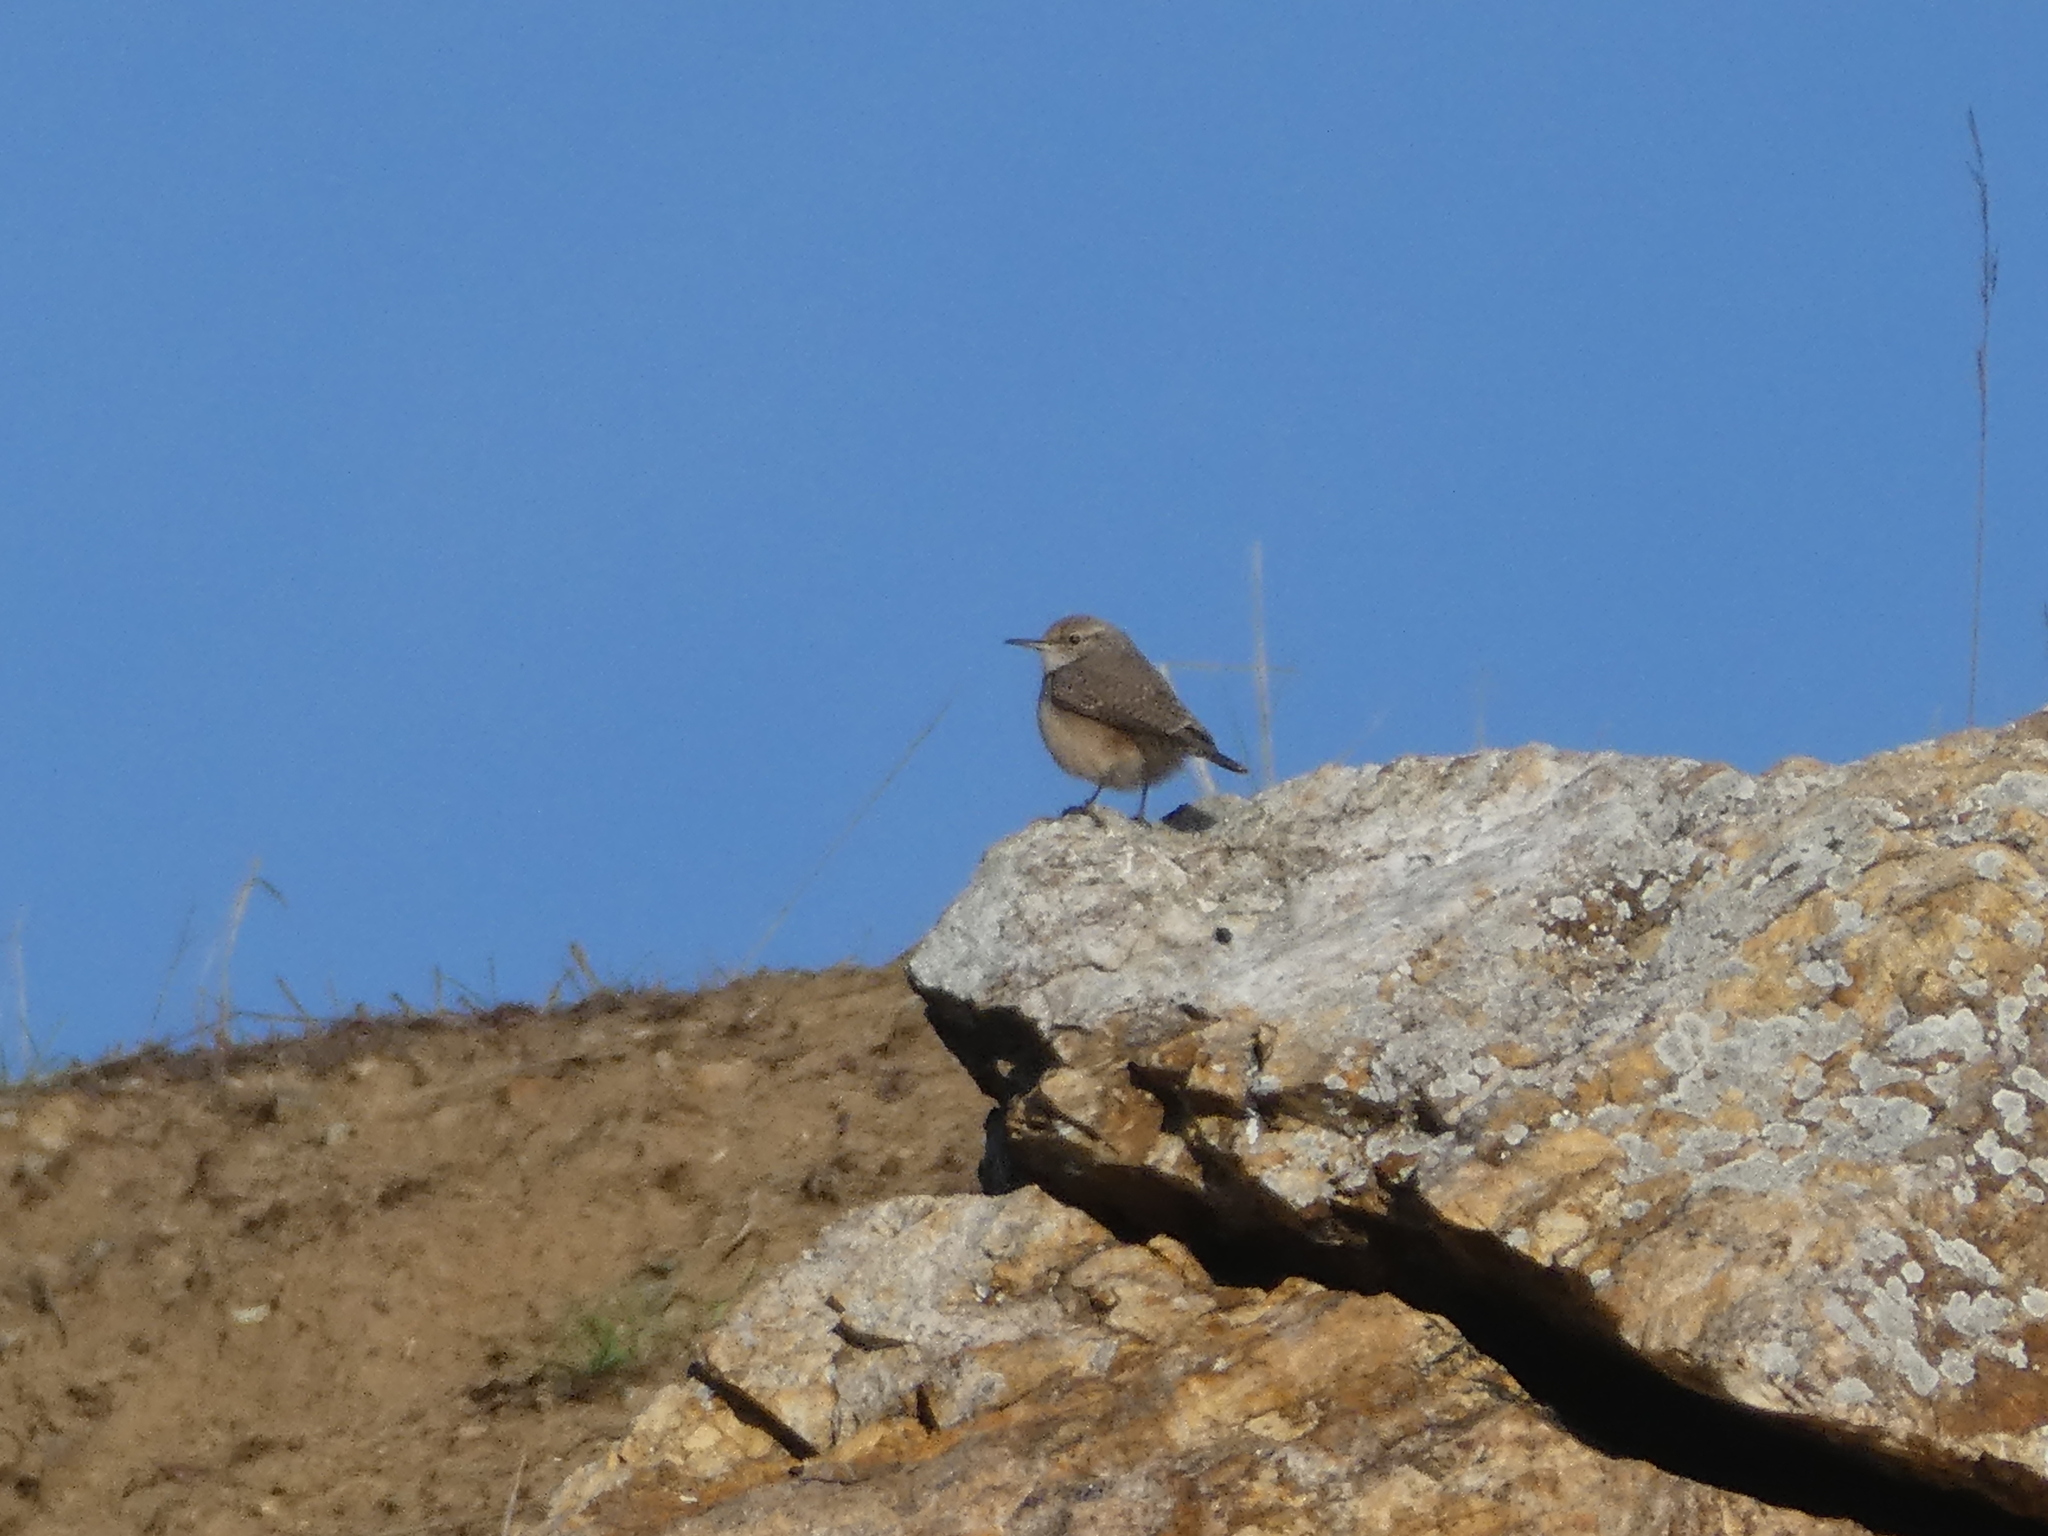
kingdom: Animalia
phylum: Chordata
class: Aves
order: Passeriformes
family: Troglodytidae
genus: Salpinctes
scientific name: Salpinctes obsoletus
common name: Rock wren
